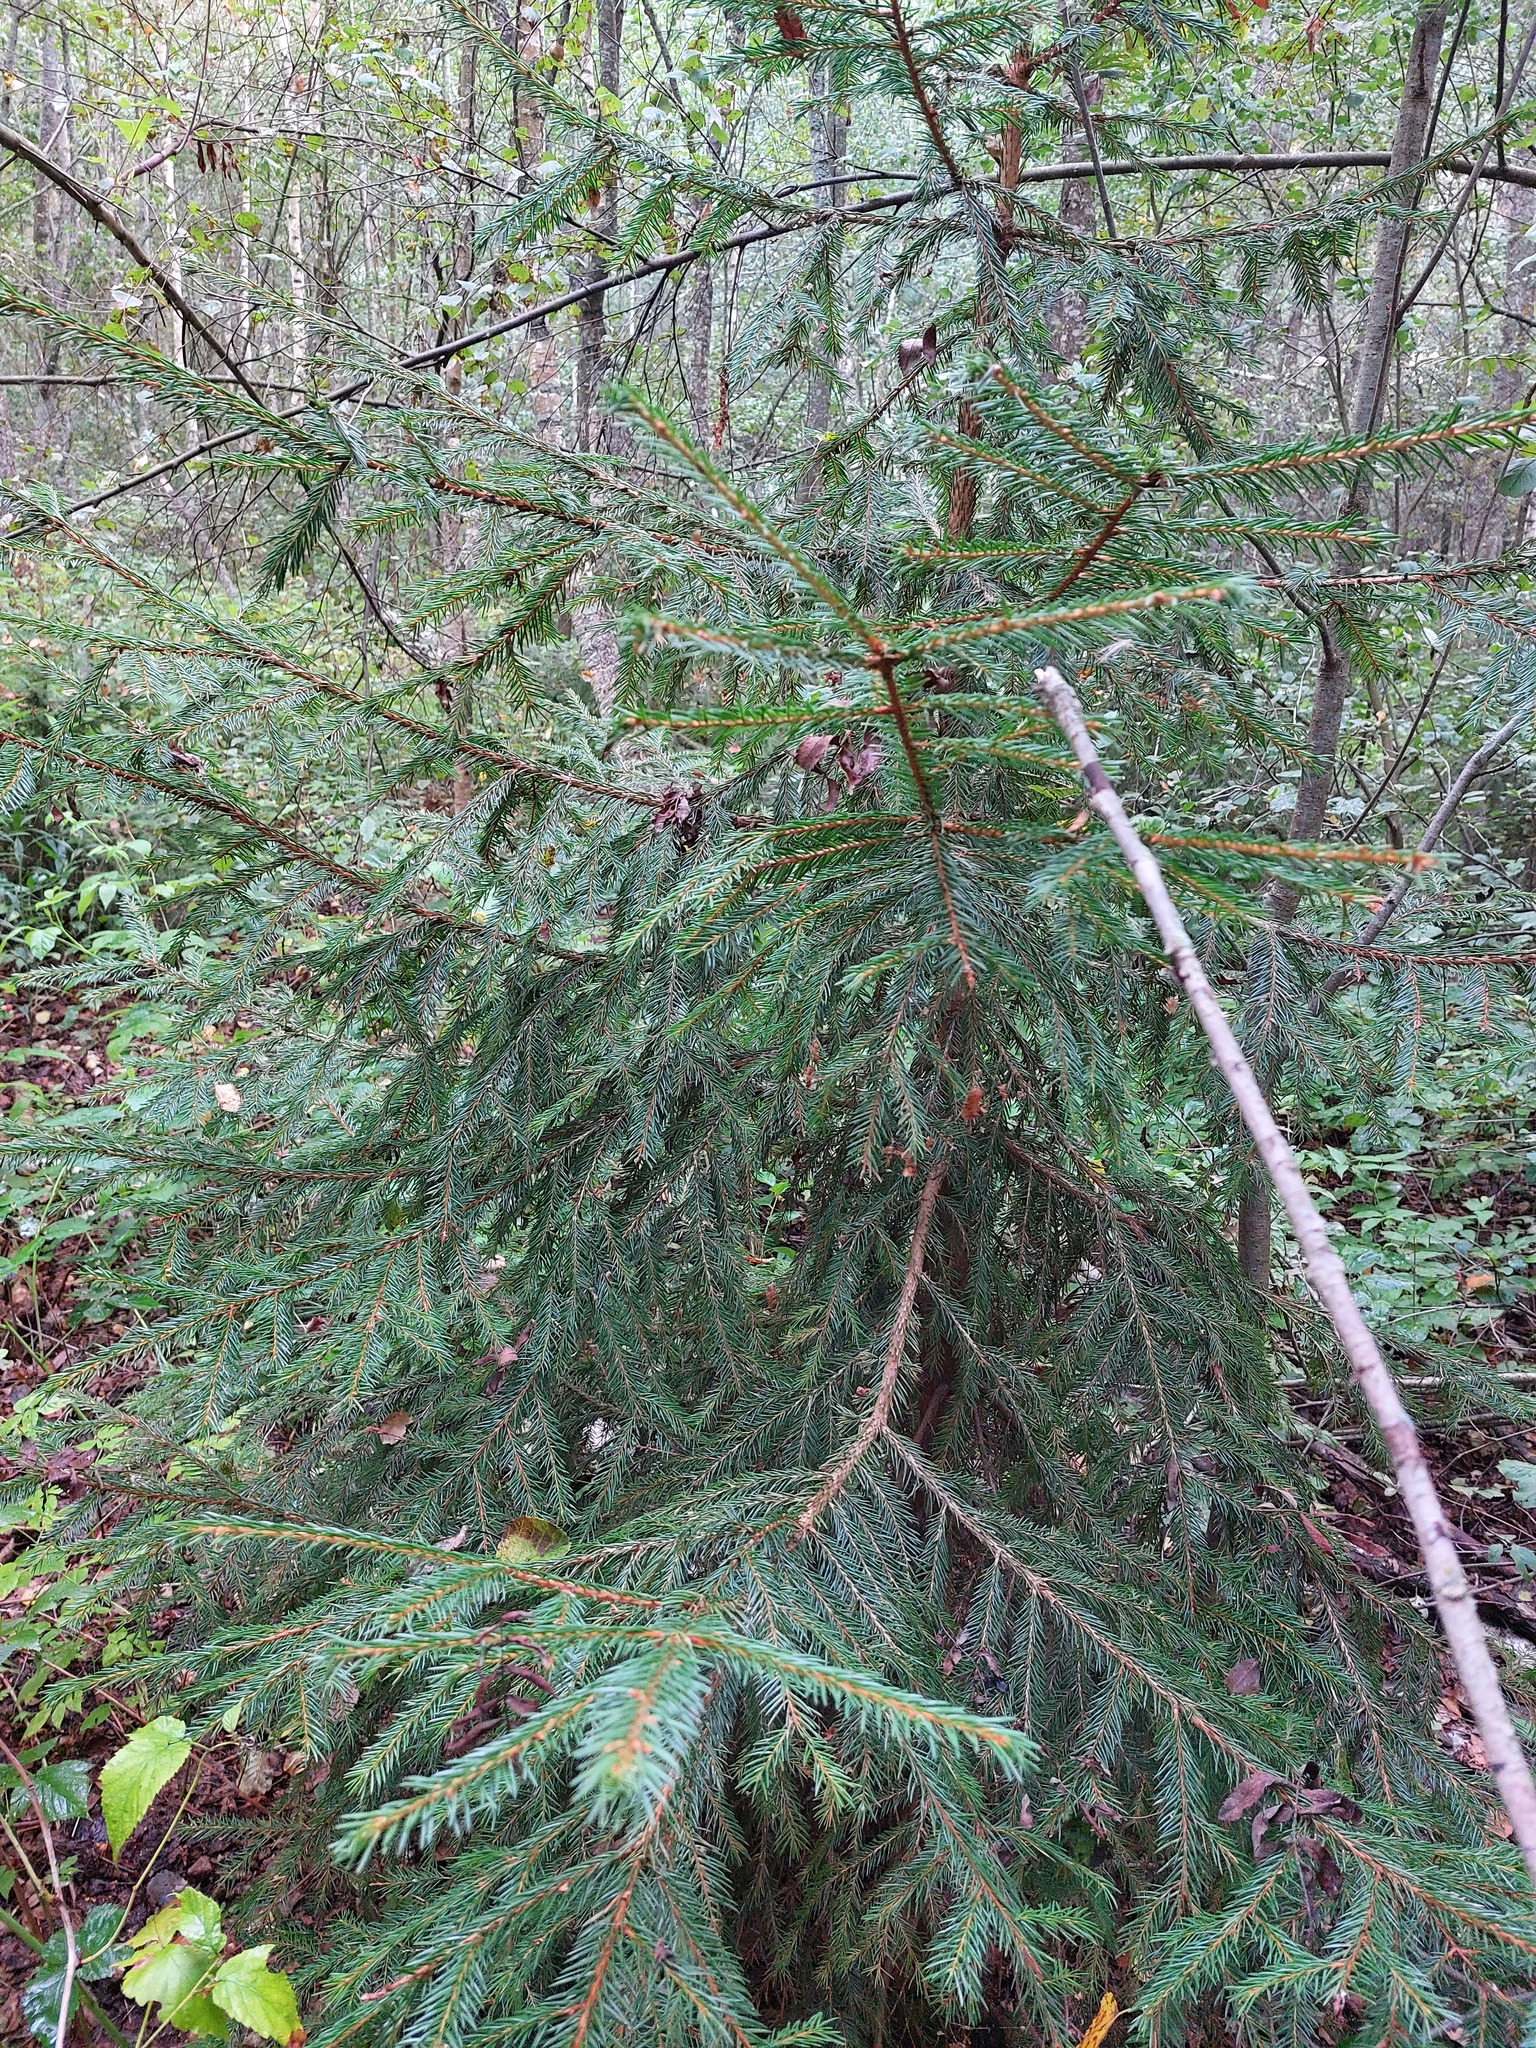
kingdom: Plantae
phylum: Tracheophyta
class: Pinopsida
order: Pinales
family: Pinaceae
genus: Picea
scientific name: Picea abies
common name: Norway spruce
